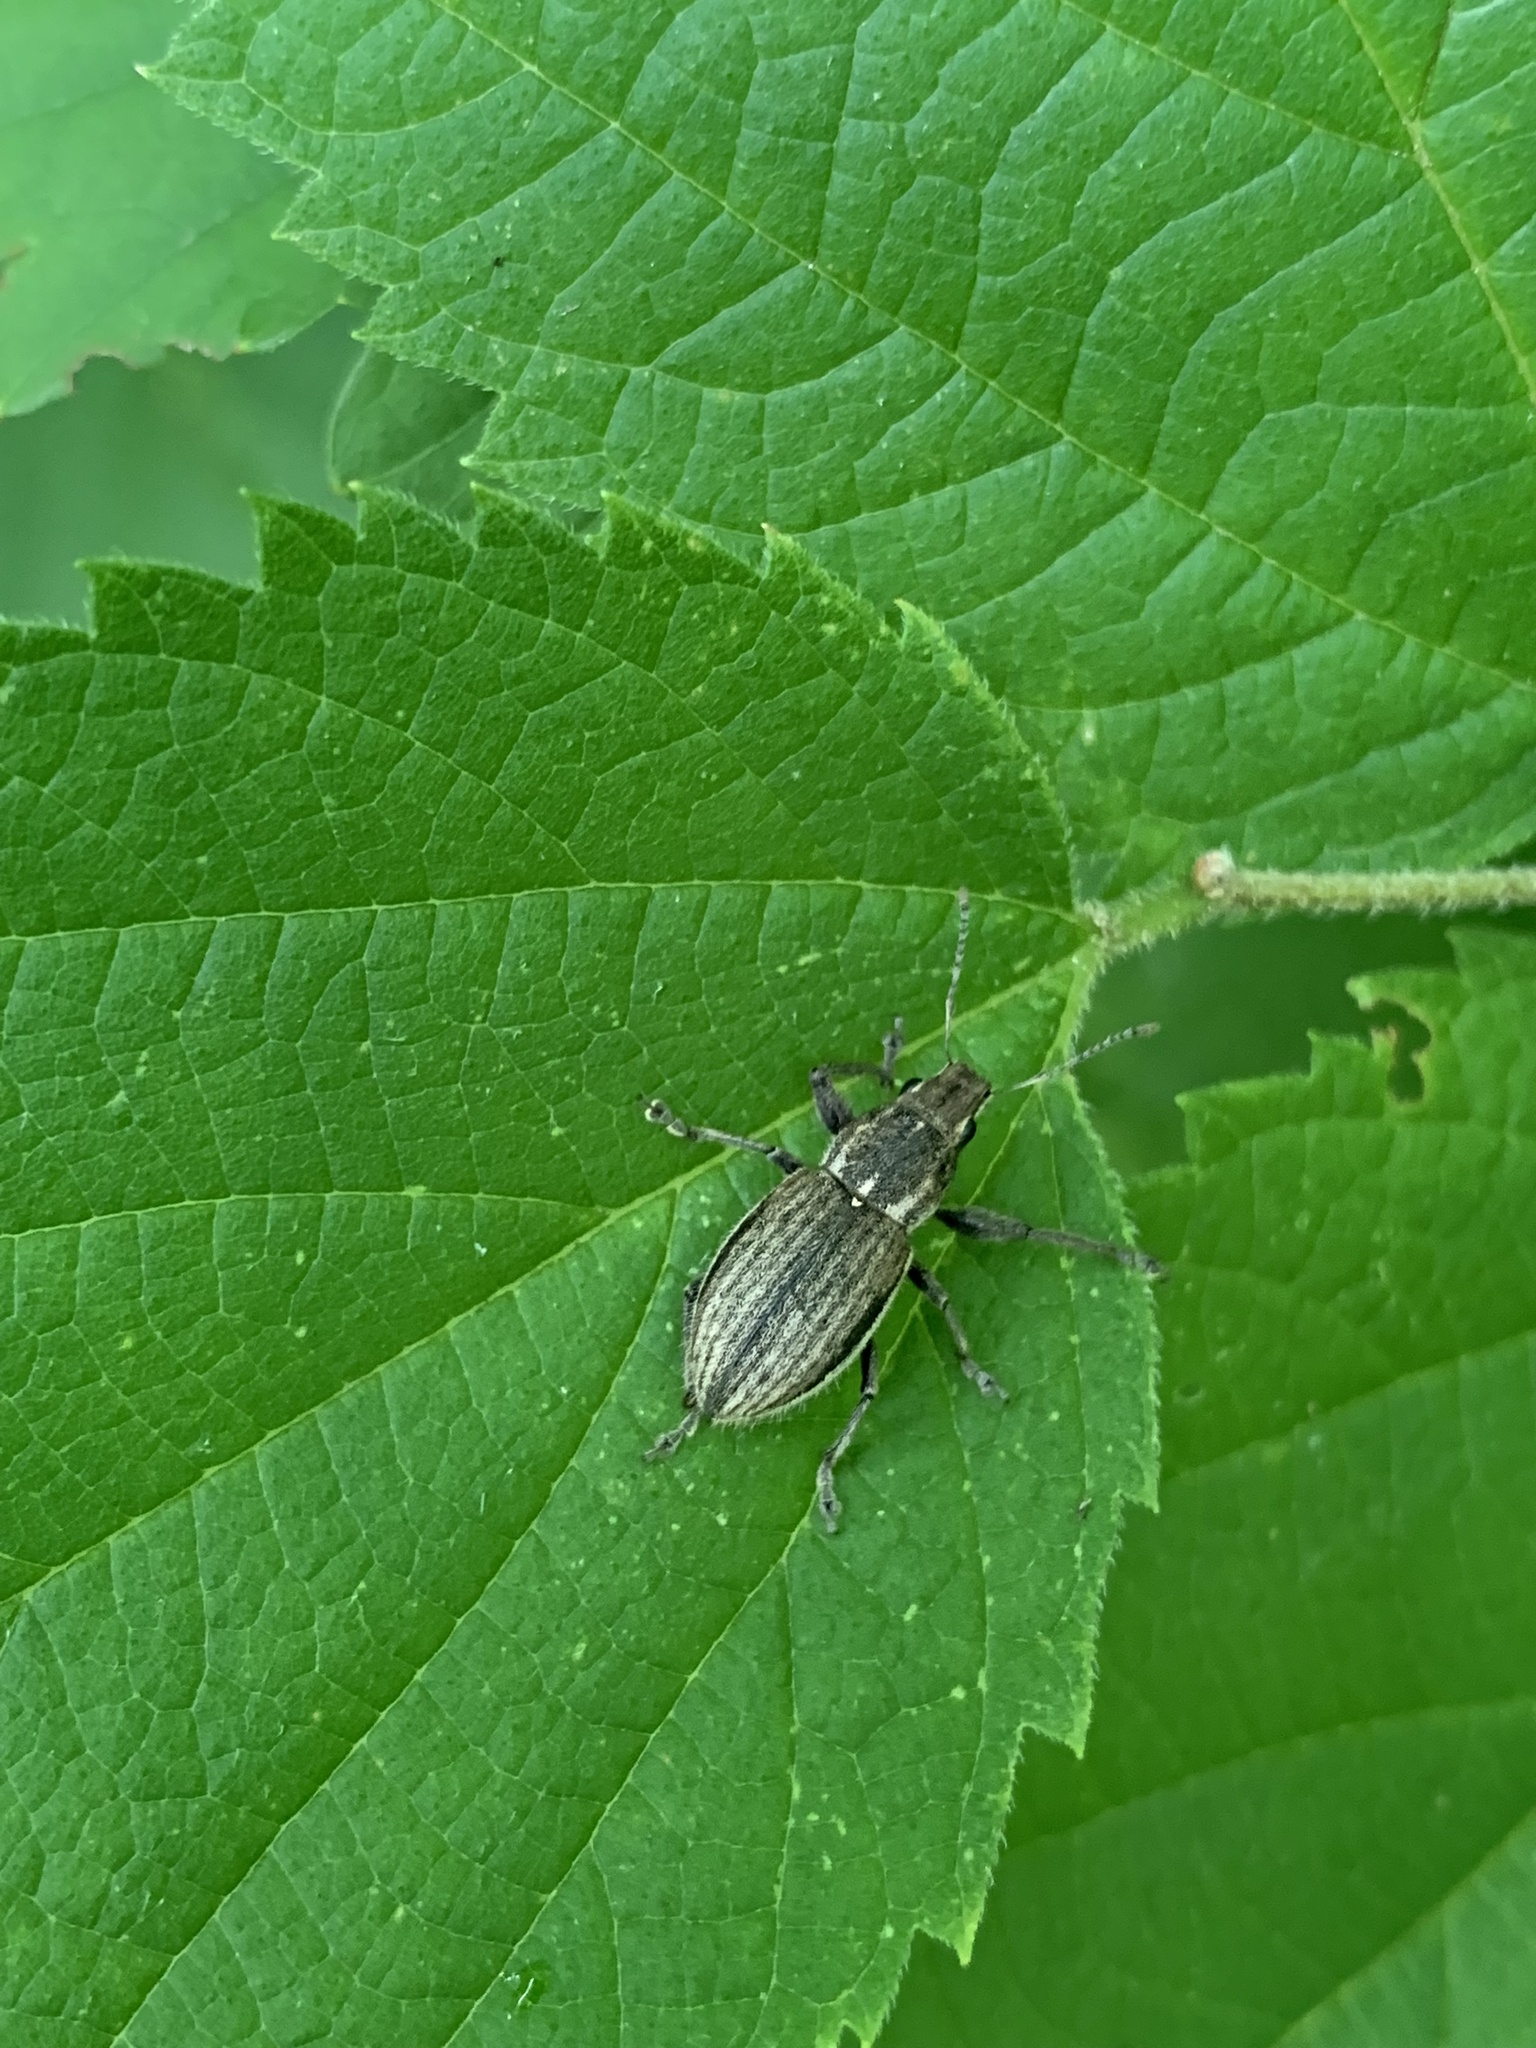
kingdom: Animalia
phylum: Arthropoda
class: Insecta
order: Coleoptera
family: Curculionidae
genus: Naupactus
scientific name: Naupactus leucoloma
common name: Whitefringed beetle
